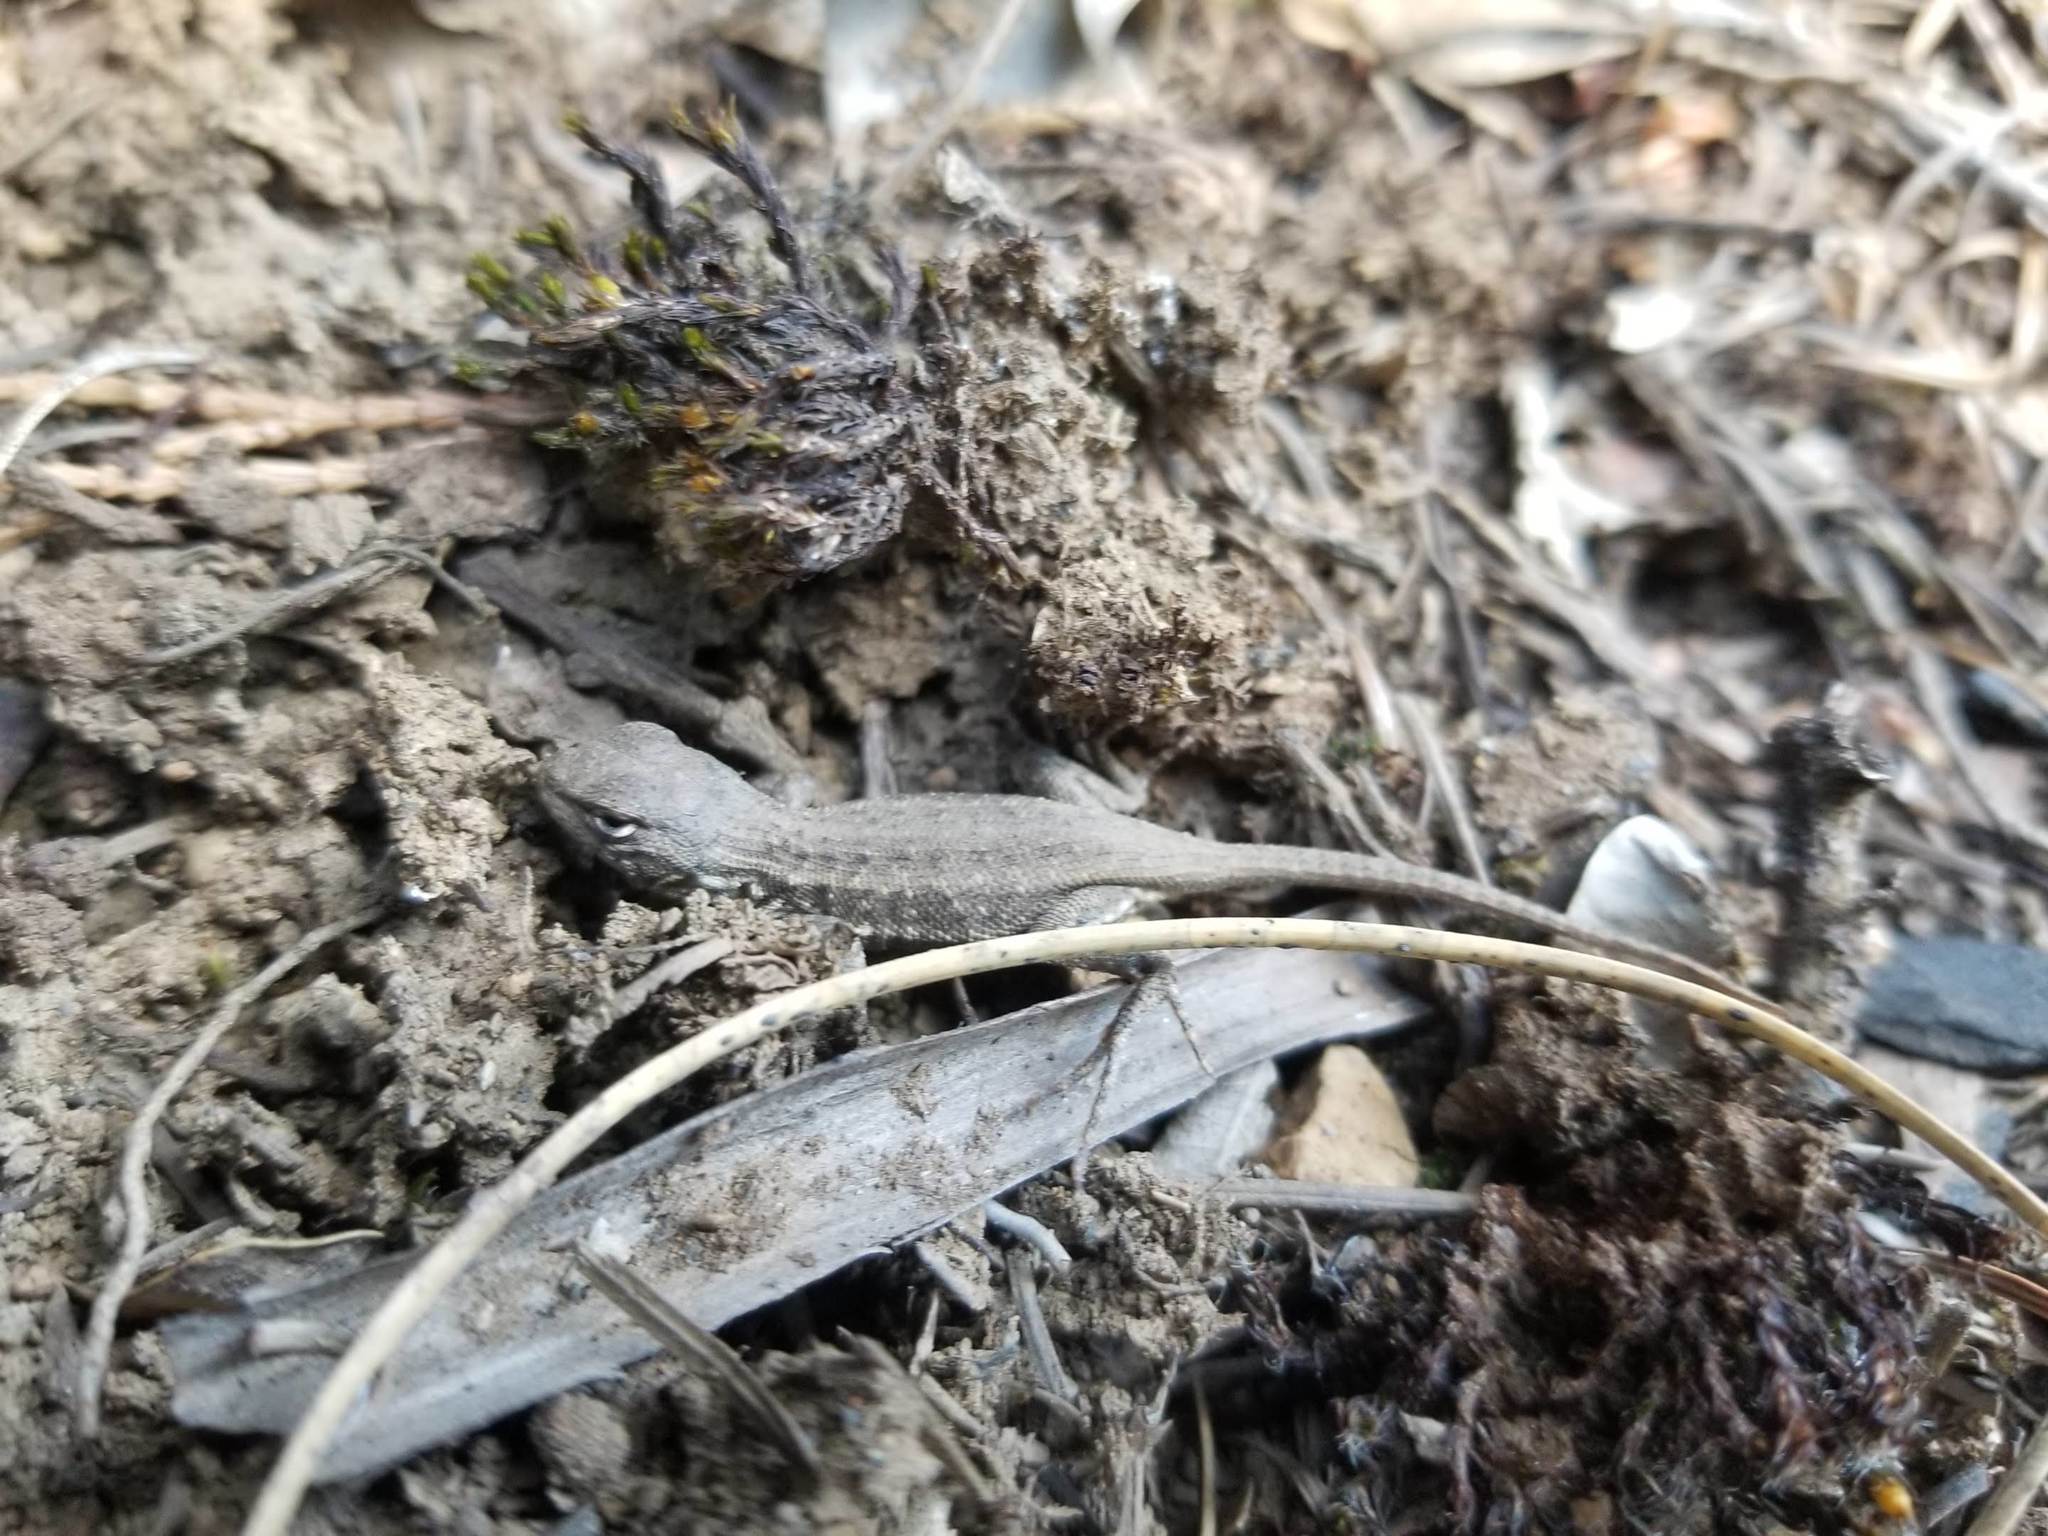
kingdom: Animalia
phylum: Chordata
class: Squamata
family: Phrynosomatidae
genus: Sceloporus
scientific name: Sceloporus graciosus
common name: Sagebrush lizard
